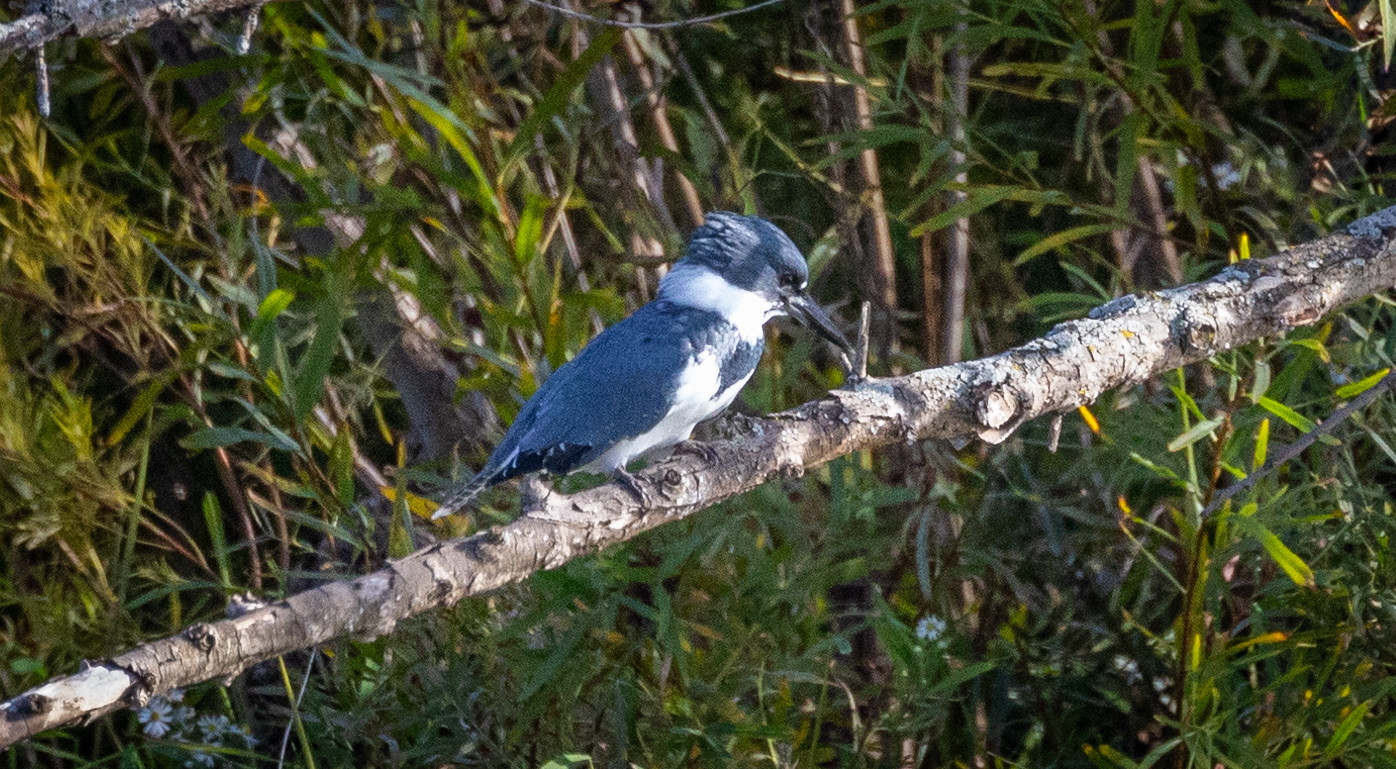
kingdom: Animalia
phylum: Chordata
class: Aves
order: Coraciiformes
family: Alcedinidae
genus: Megaceryle
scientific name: Megaceryle alcyon
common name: Belted kingfisher
